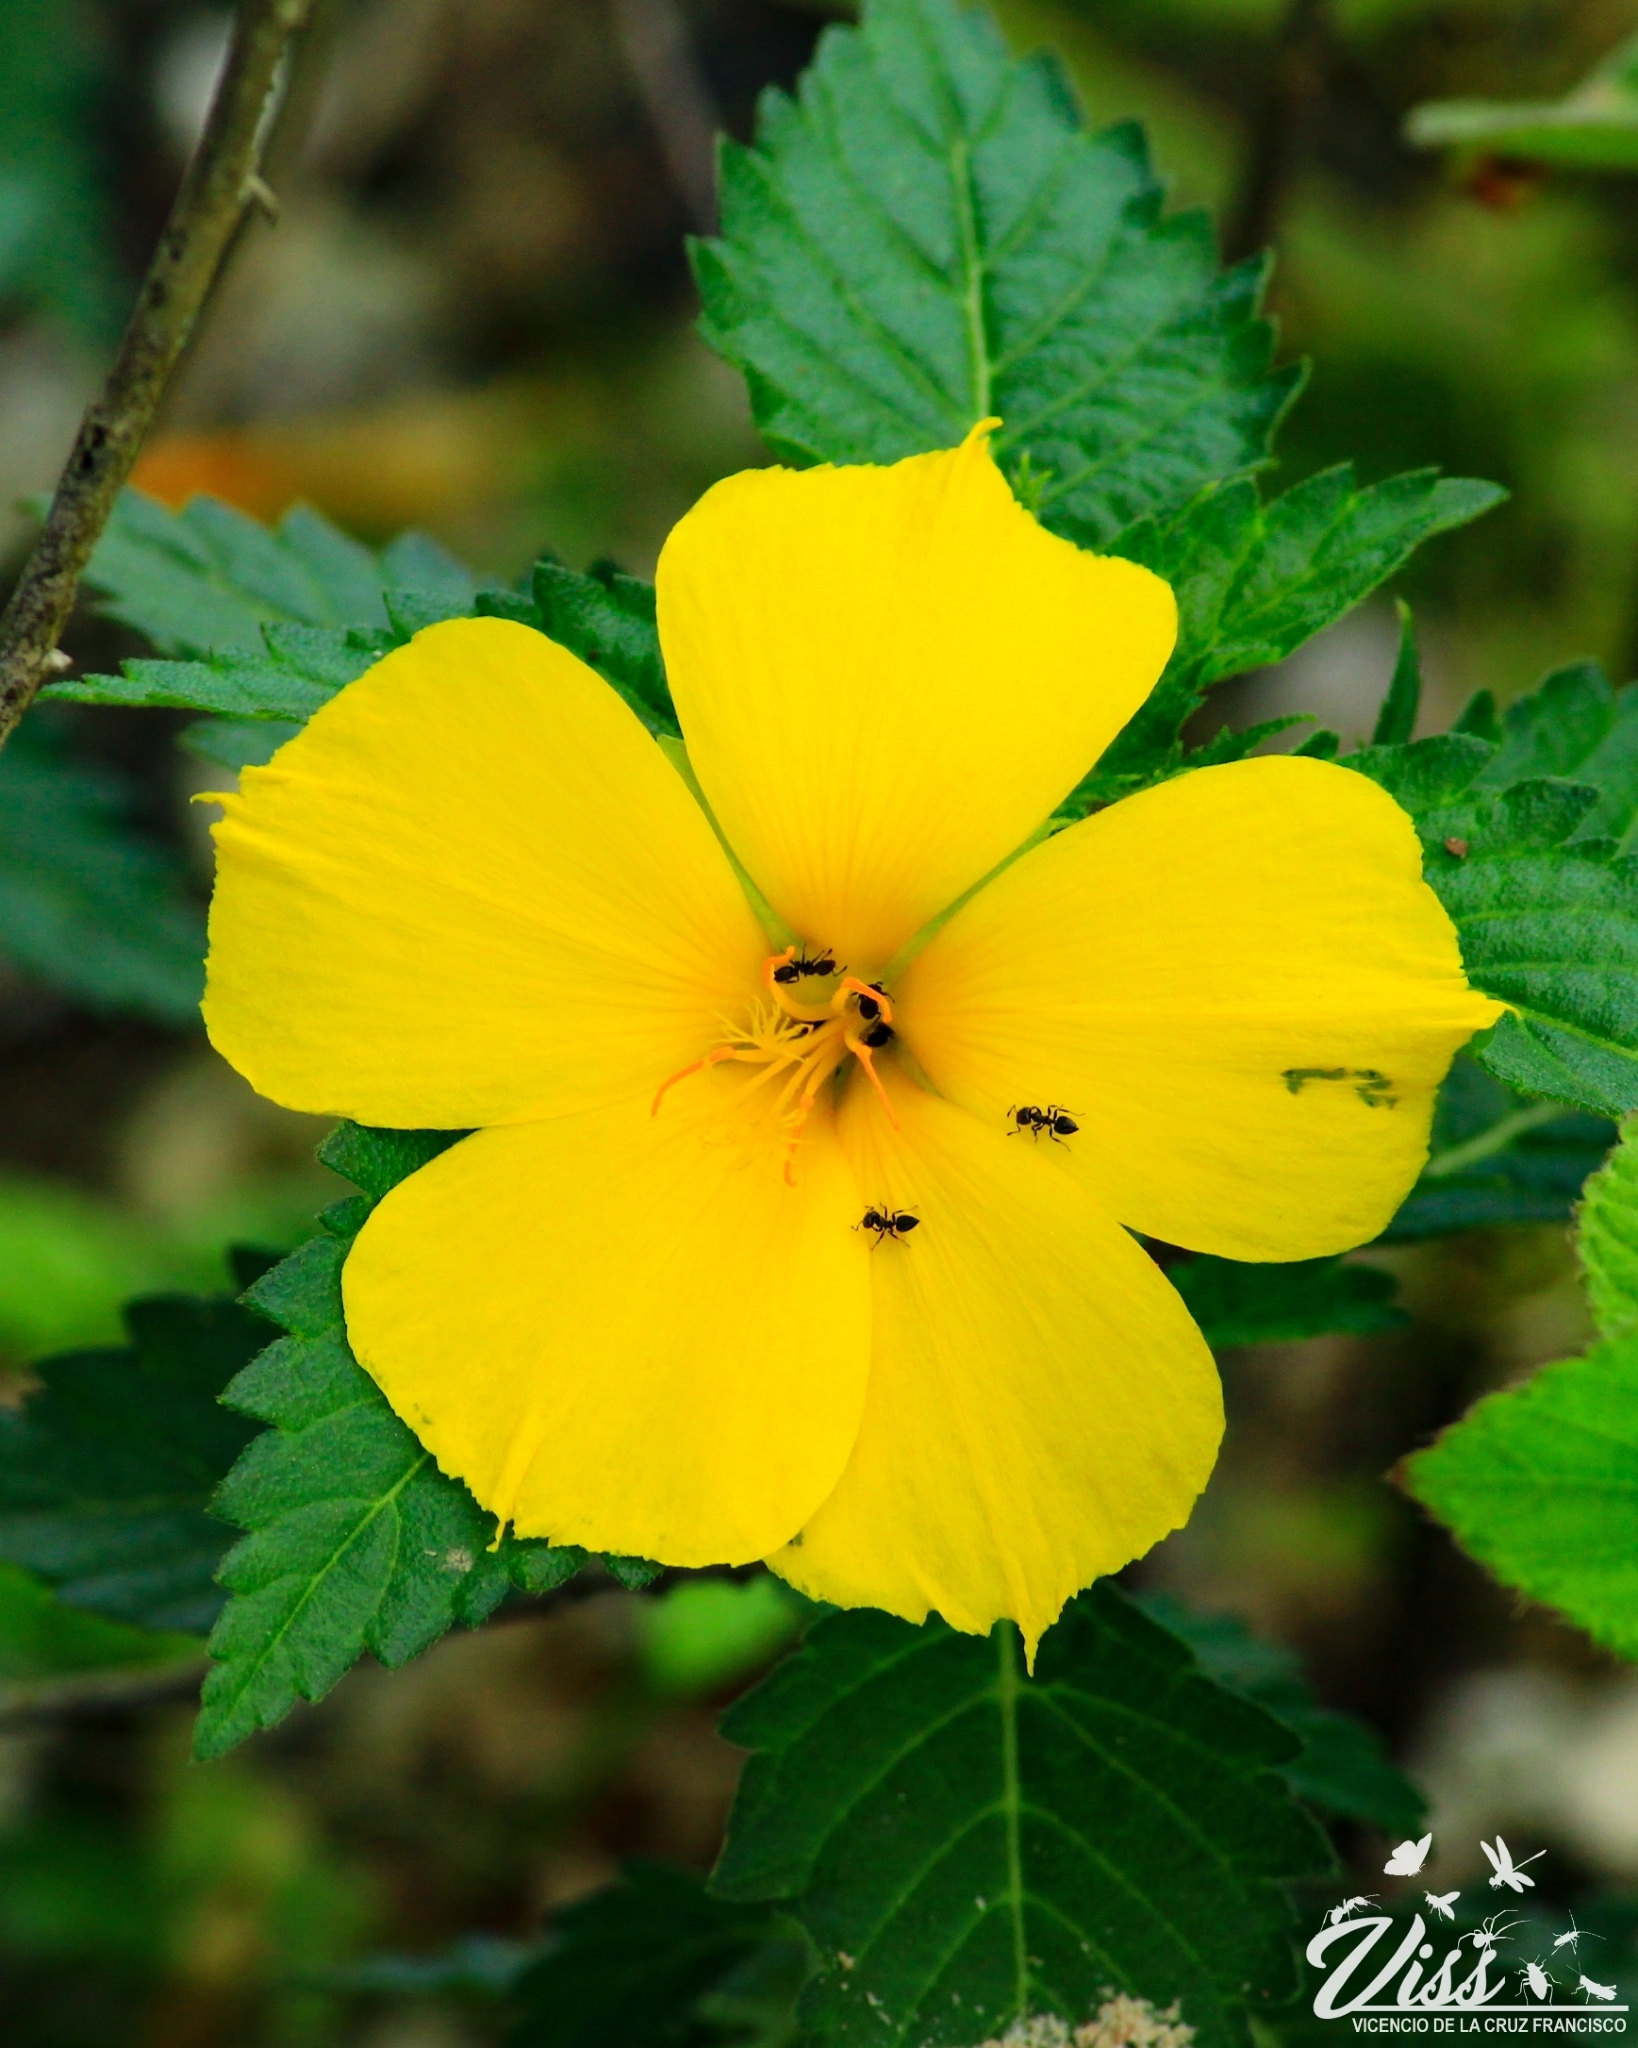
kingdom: Plantae
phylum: Tracheophyta
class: Magnoliopsida
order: Malpighiales
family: Turneraceae
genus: Turnera
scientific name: Turnera ulmifolia
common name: Ramgoat dashalong
